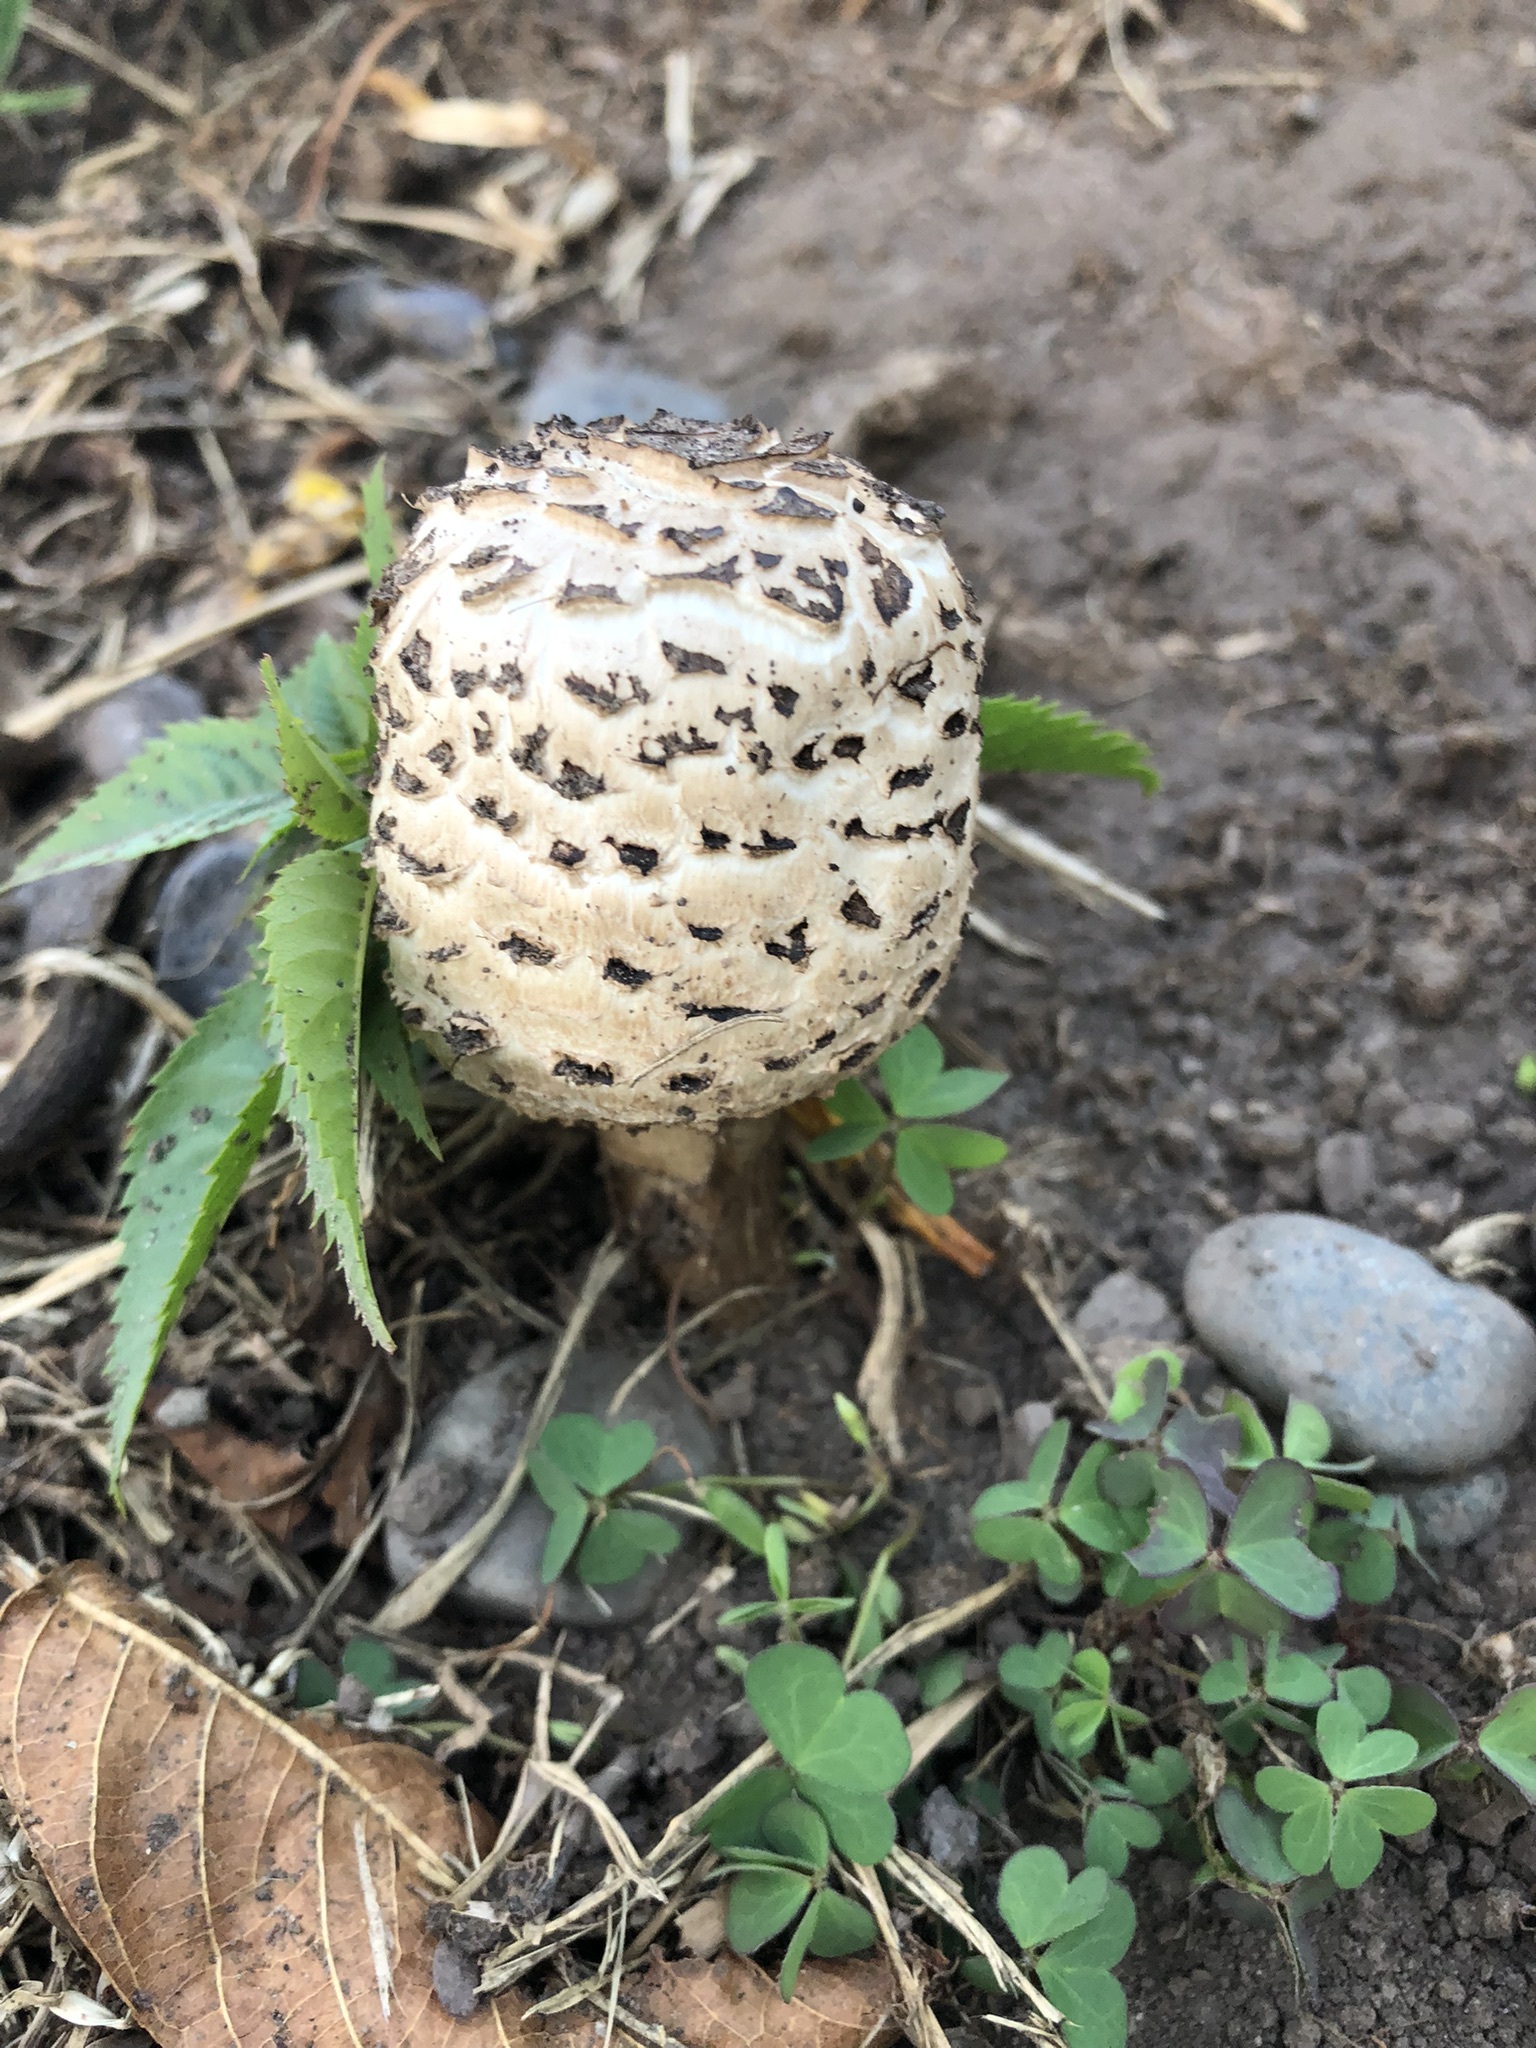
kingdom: Fungi
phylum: Basidiomycota
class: Agaricomycetes
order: Agaricales
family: Agaricaceae
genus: Chlorophyllum
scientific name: Chlorophyllum molybdites
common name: False parasol
